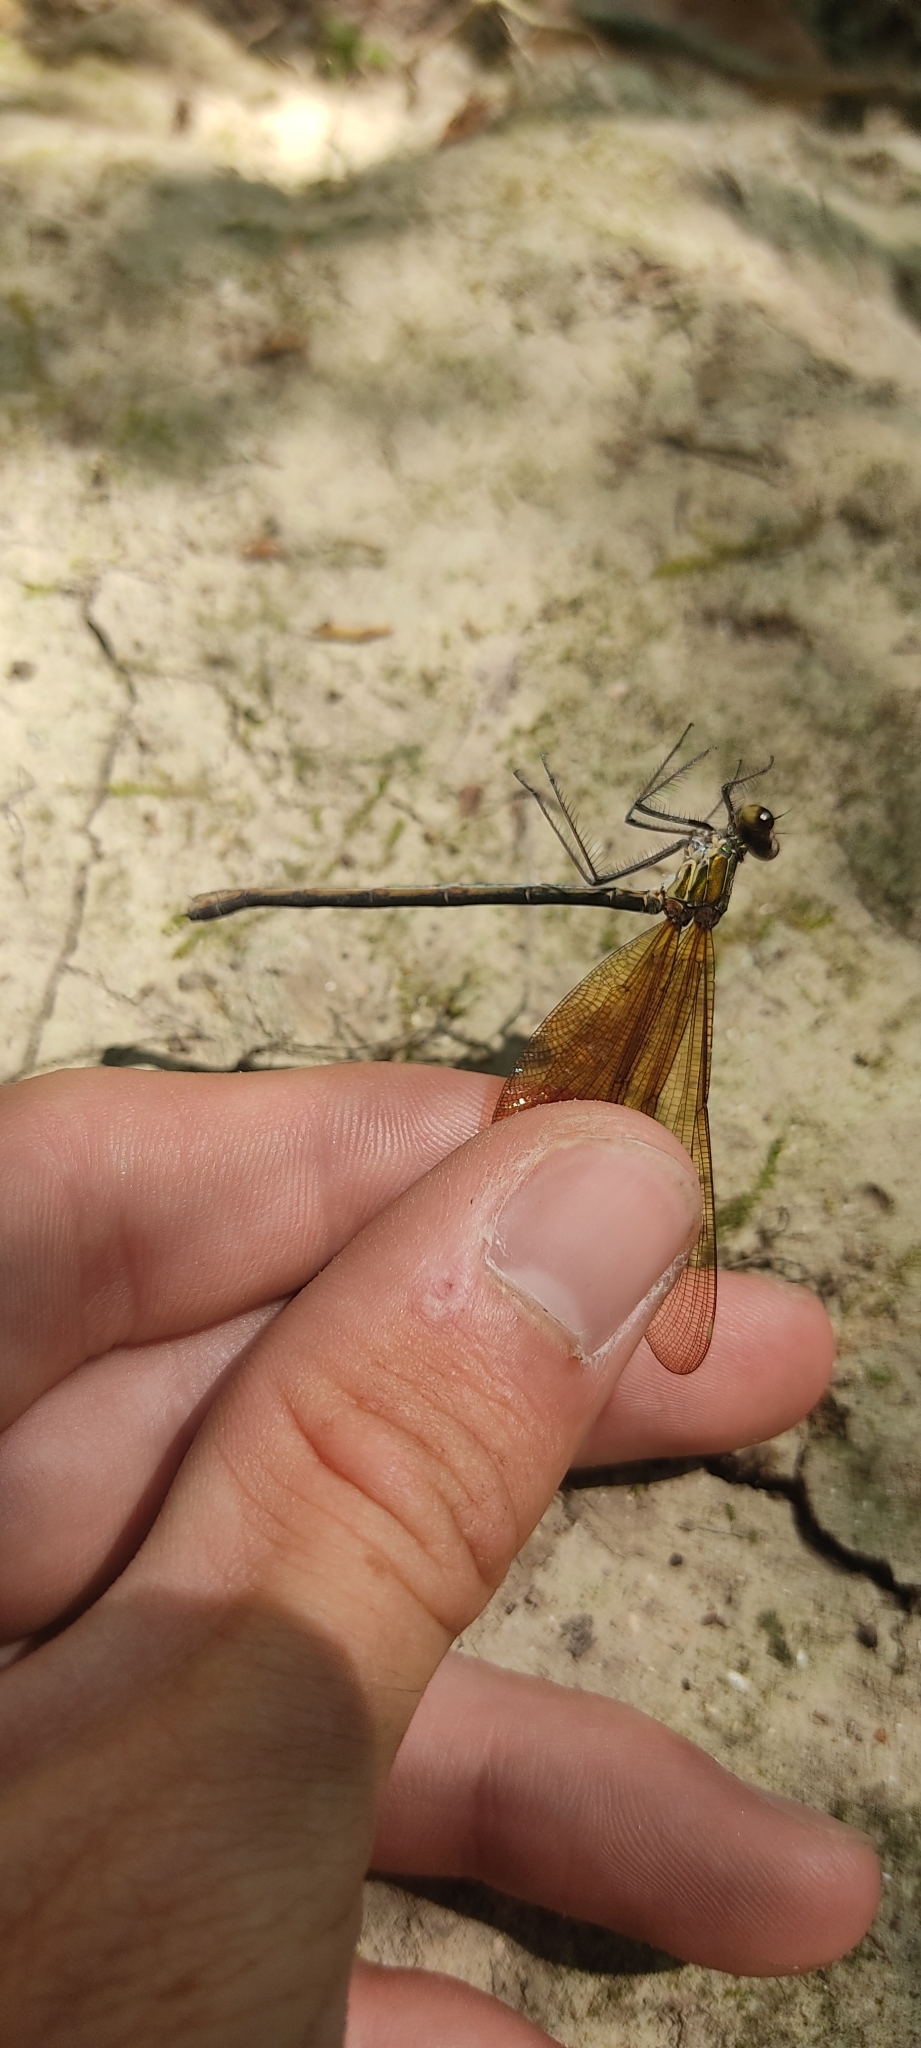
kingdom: Animalia
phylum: Arthropoda
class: Insecta
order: Odonata
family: Calopterygidae
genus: Calopteryx
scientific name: Calopteryx haemorrhoidalis
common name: Copper demoiselle
